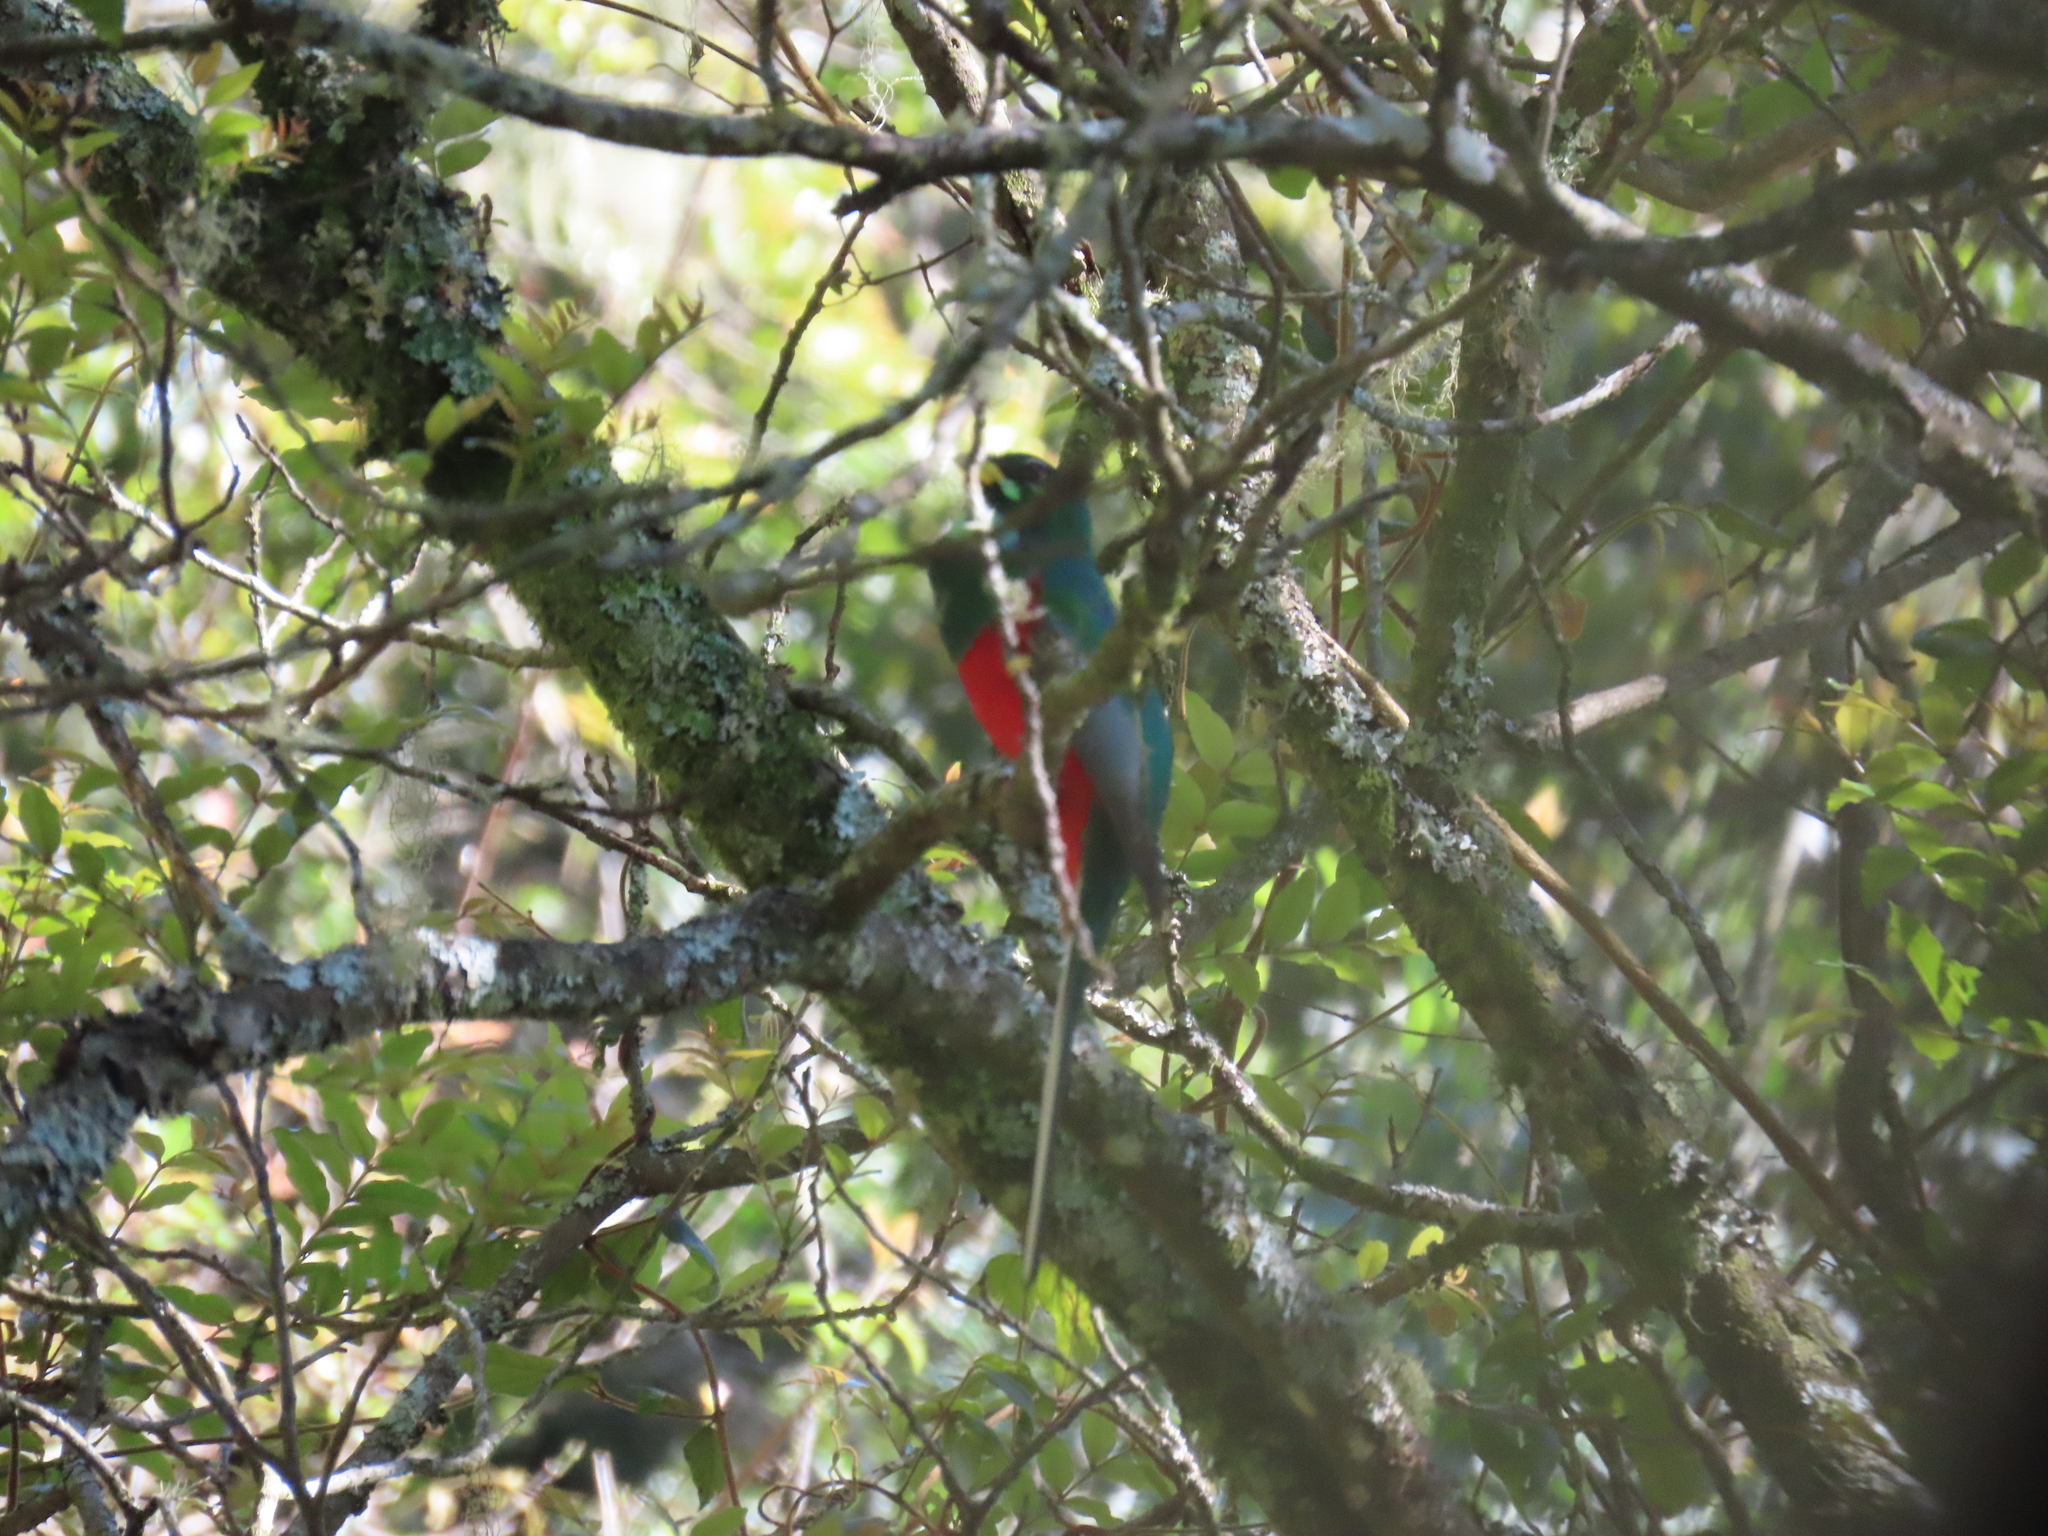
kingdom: Animalia
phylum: Chordata
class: Aves
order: Trogoniformes
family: Trogonidae
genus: Apaloderma
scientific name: Apaloderma narina
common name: Narina trogon
